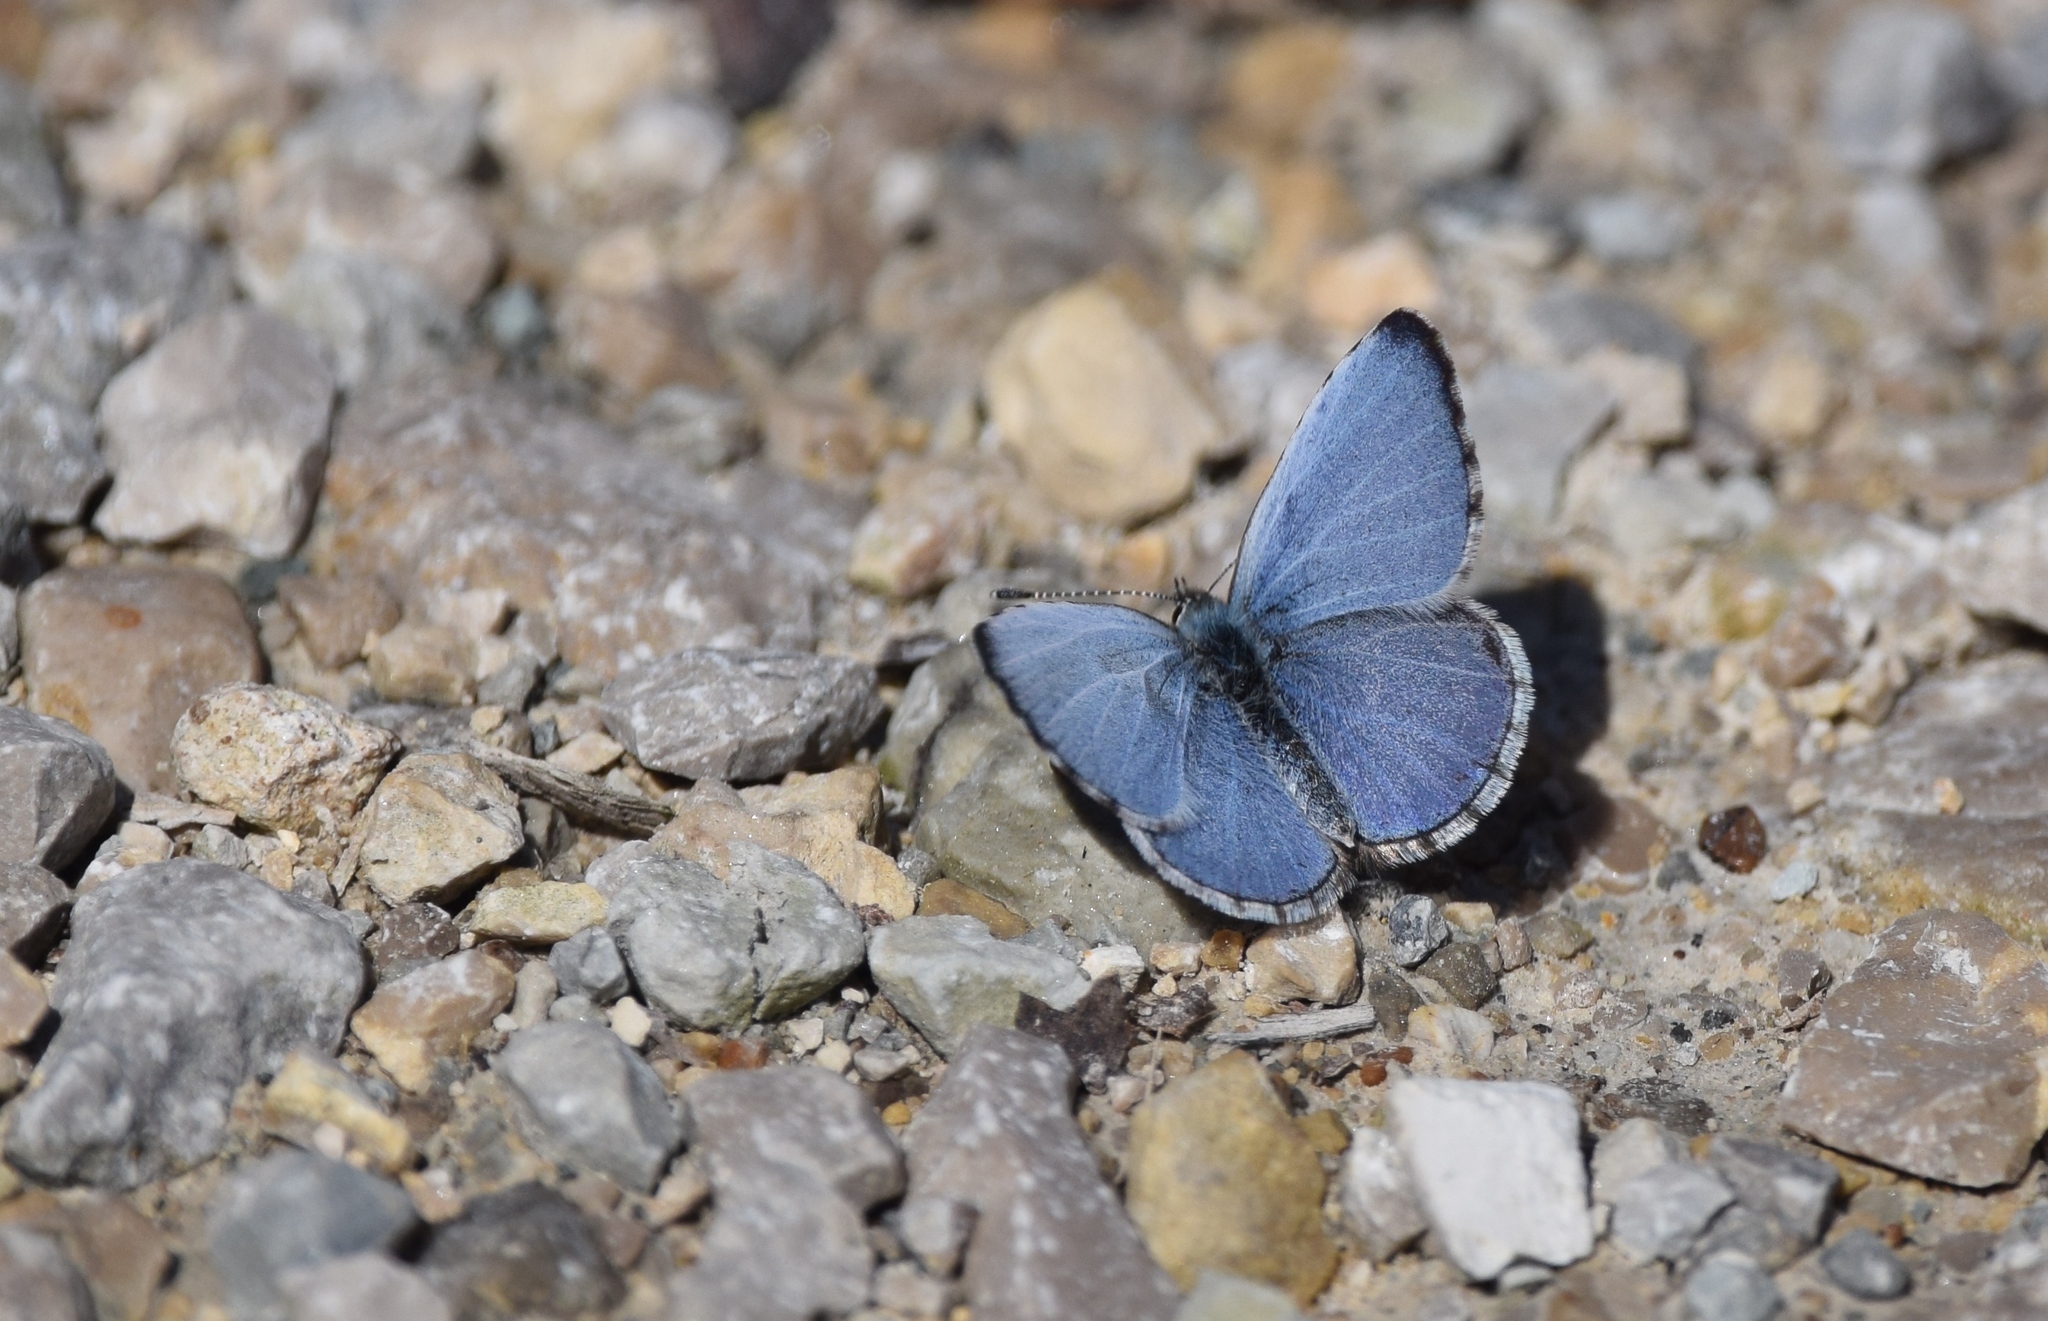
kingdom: Animalia
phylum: Arthropoda
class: Insecta
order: Lepidoptera
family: Lycaenidae
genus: Celastrina
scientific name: Celastrina ladon
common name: Spring azure
